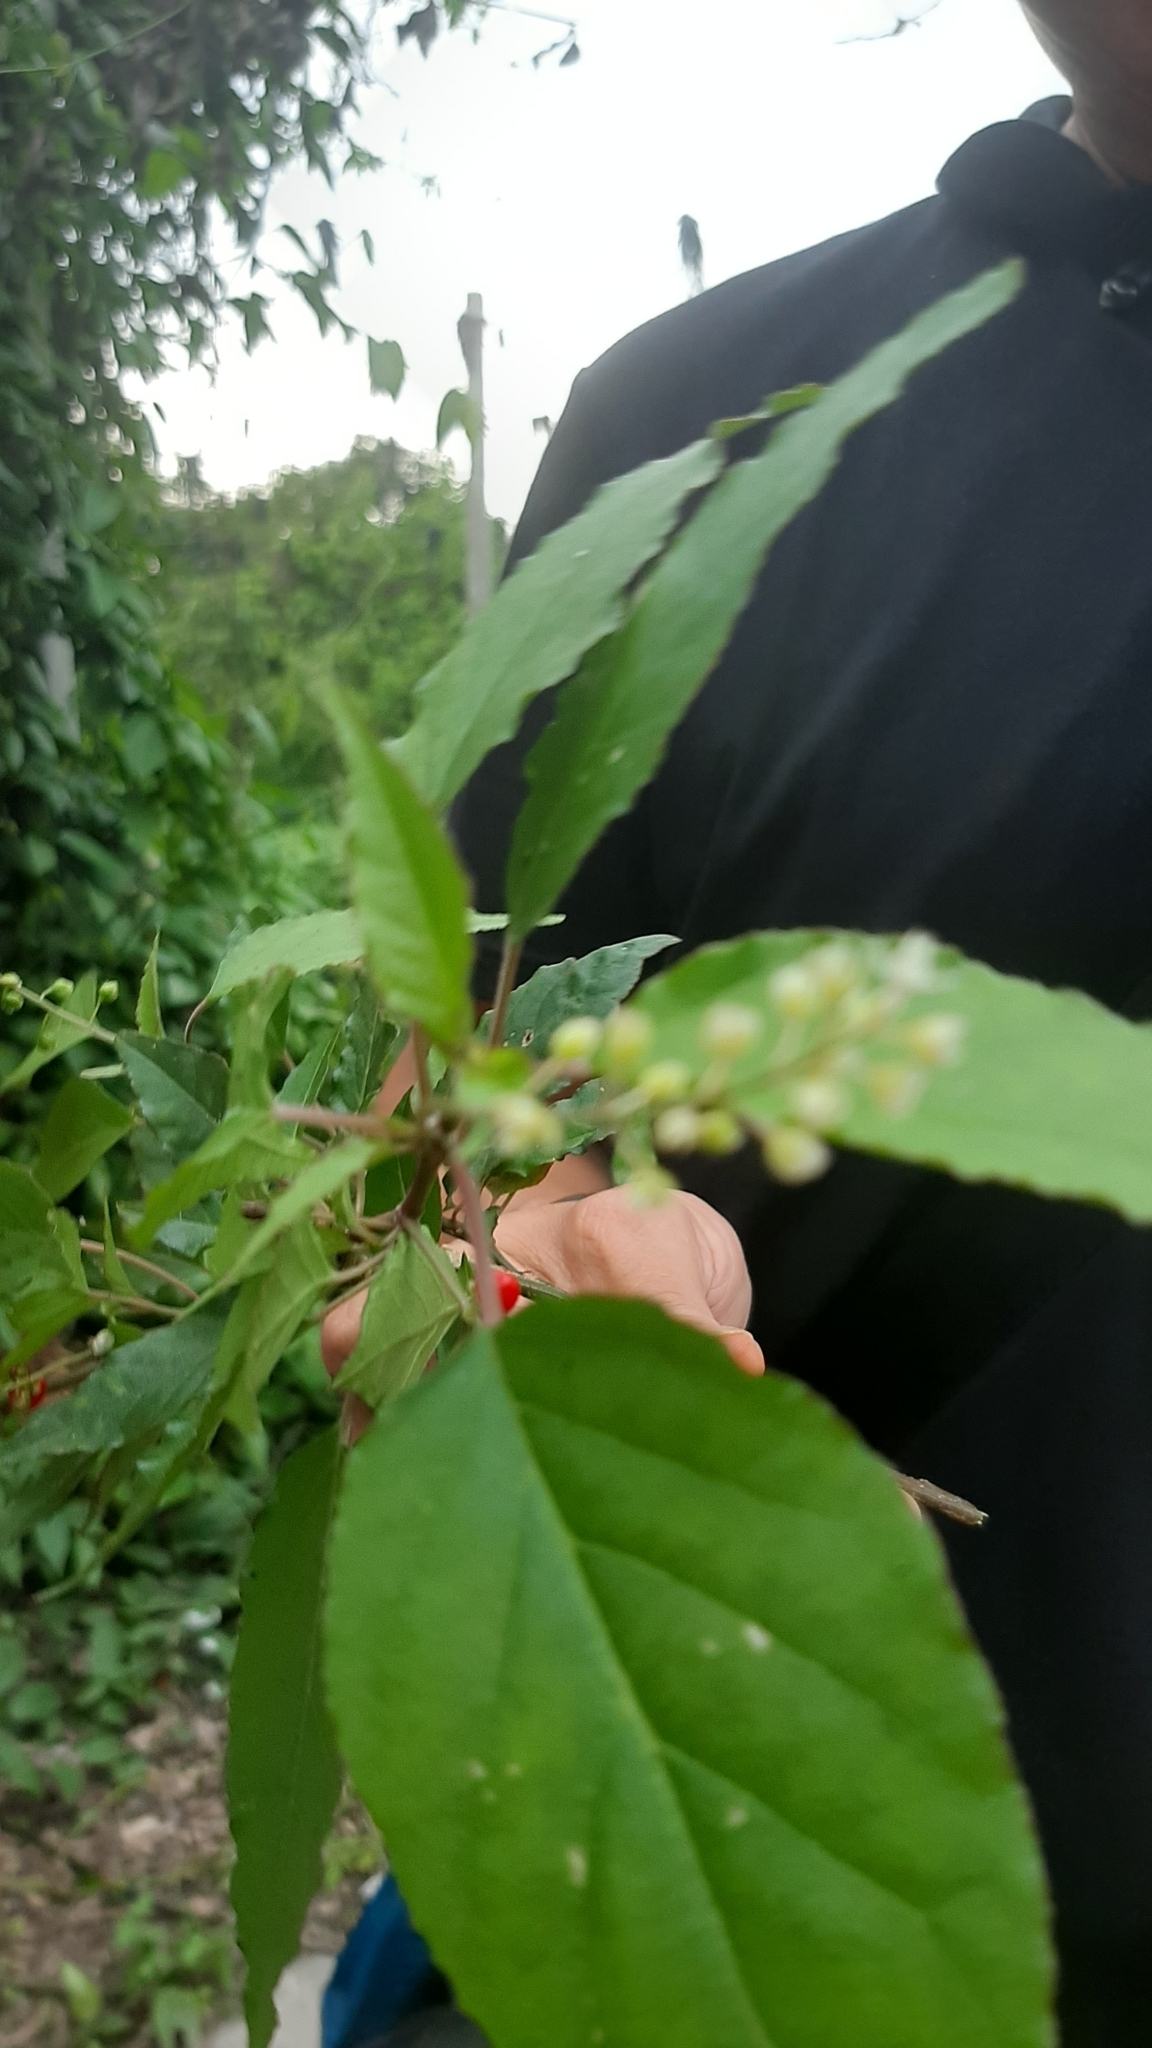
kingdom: Plantae
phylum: Tracheophyta
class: Magnoliopsida
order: Caryophyllales
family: Phytolaccaceae
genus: Rivina
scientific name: Rivina humilis
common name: Rougeplant
